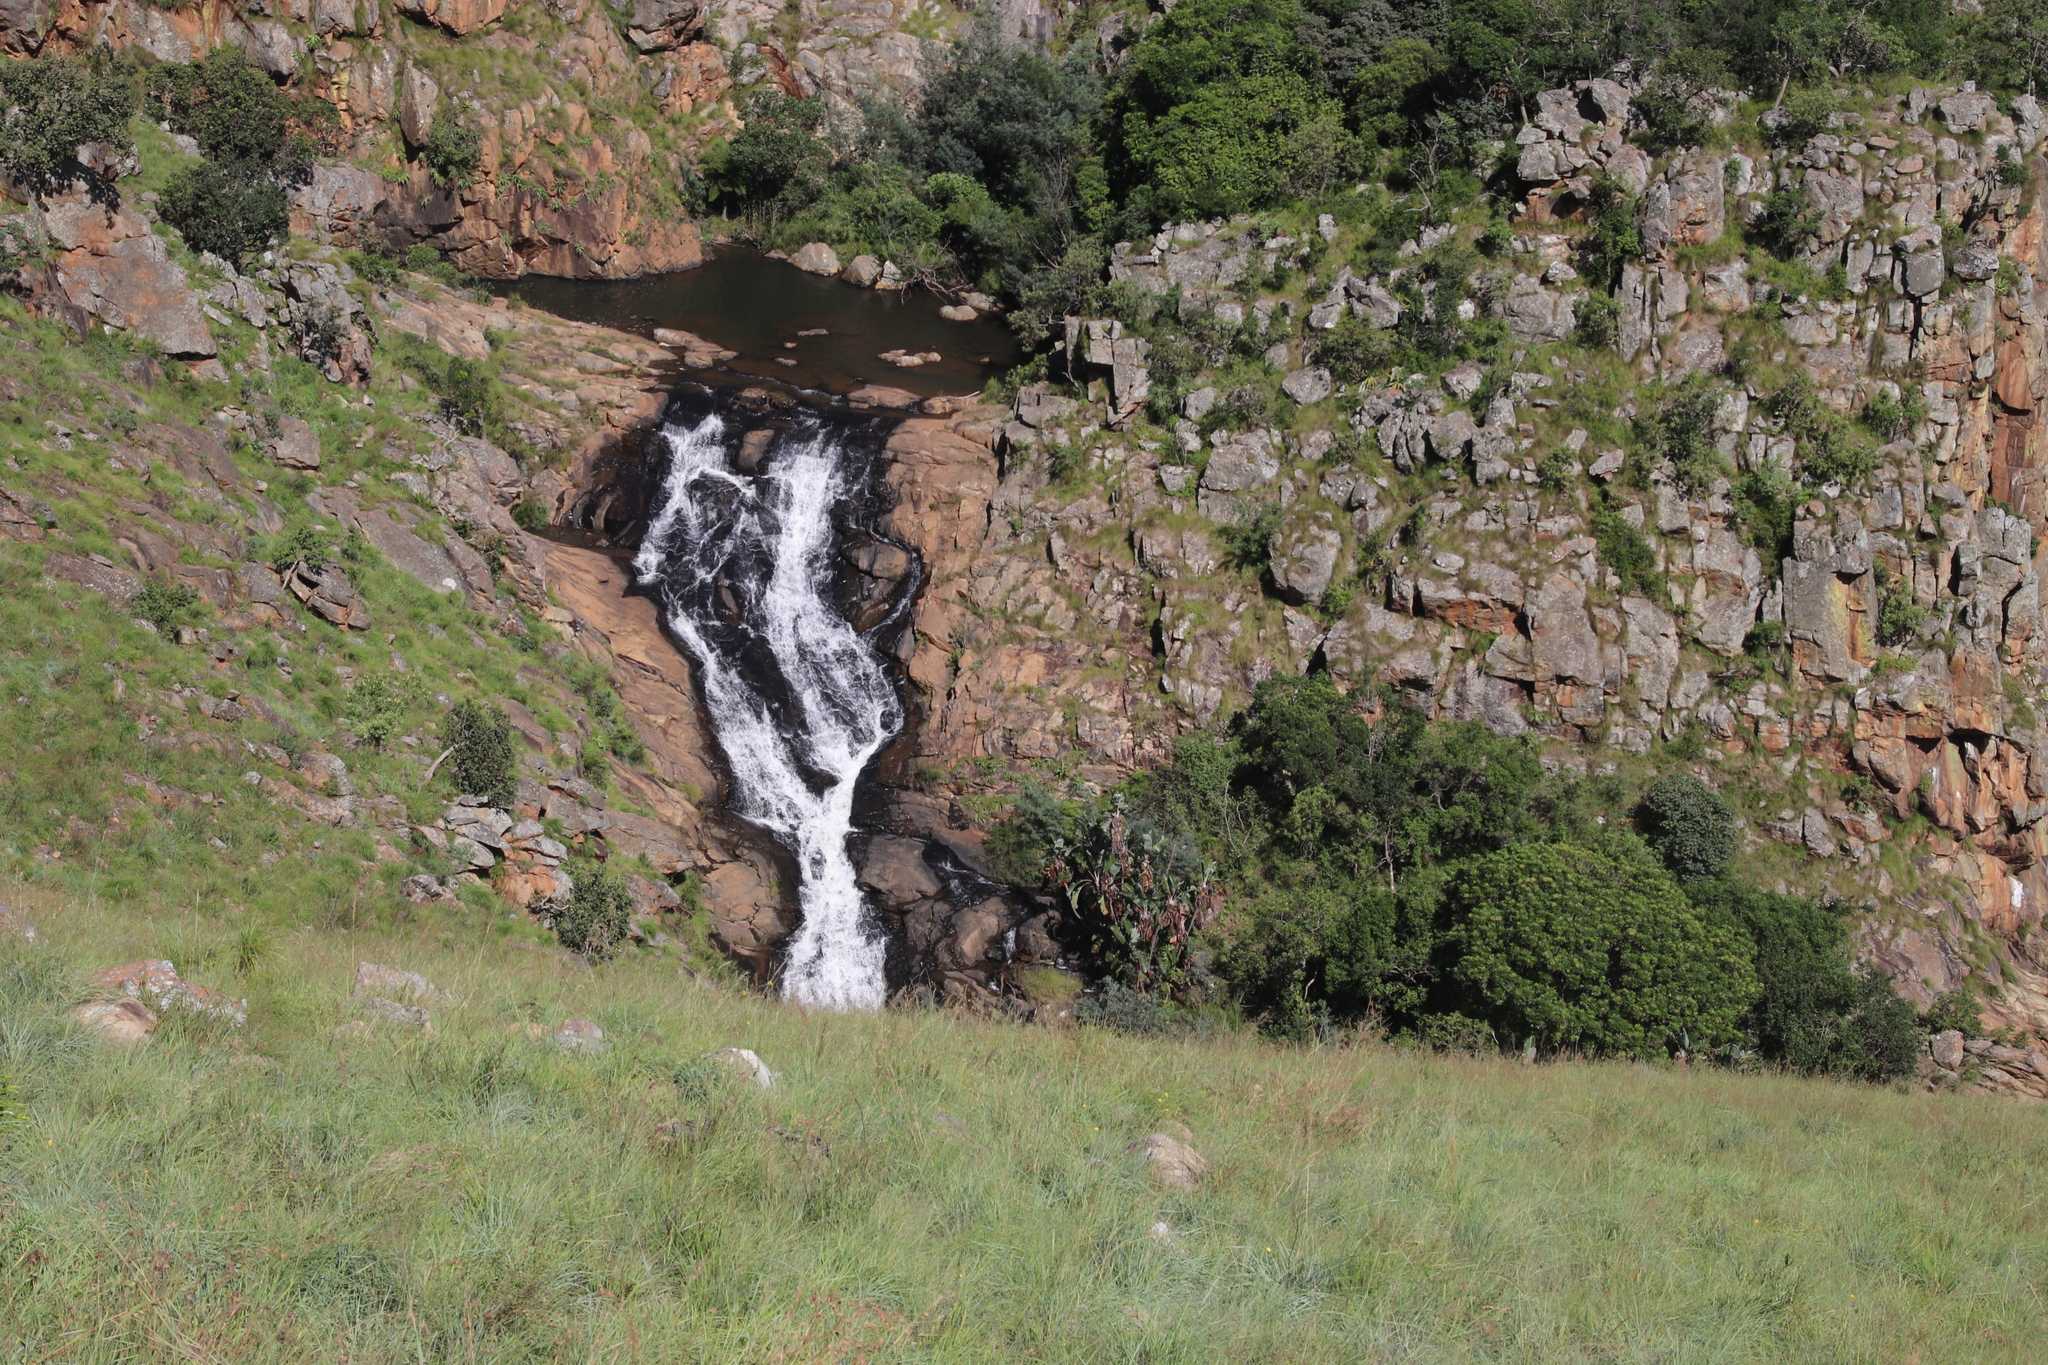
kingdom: Plantae
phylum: Tracheophyta
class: Liliopsida
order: Zingiberales
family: Strelitziaceae
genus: Strelitzia
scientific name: Strelitzia caudata
